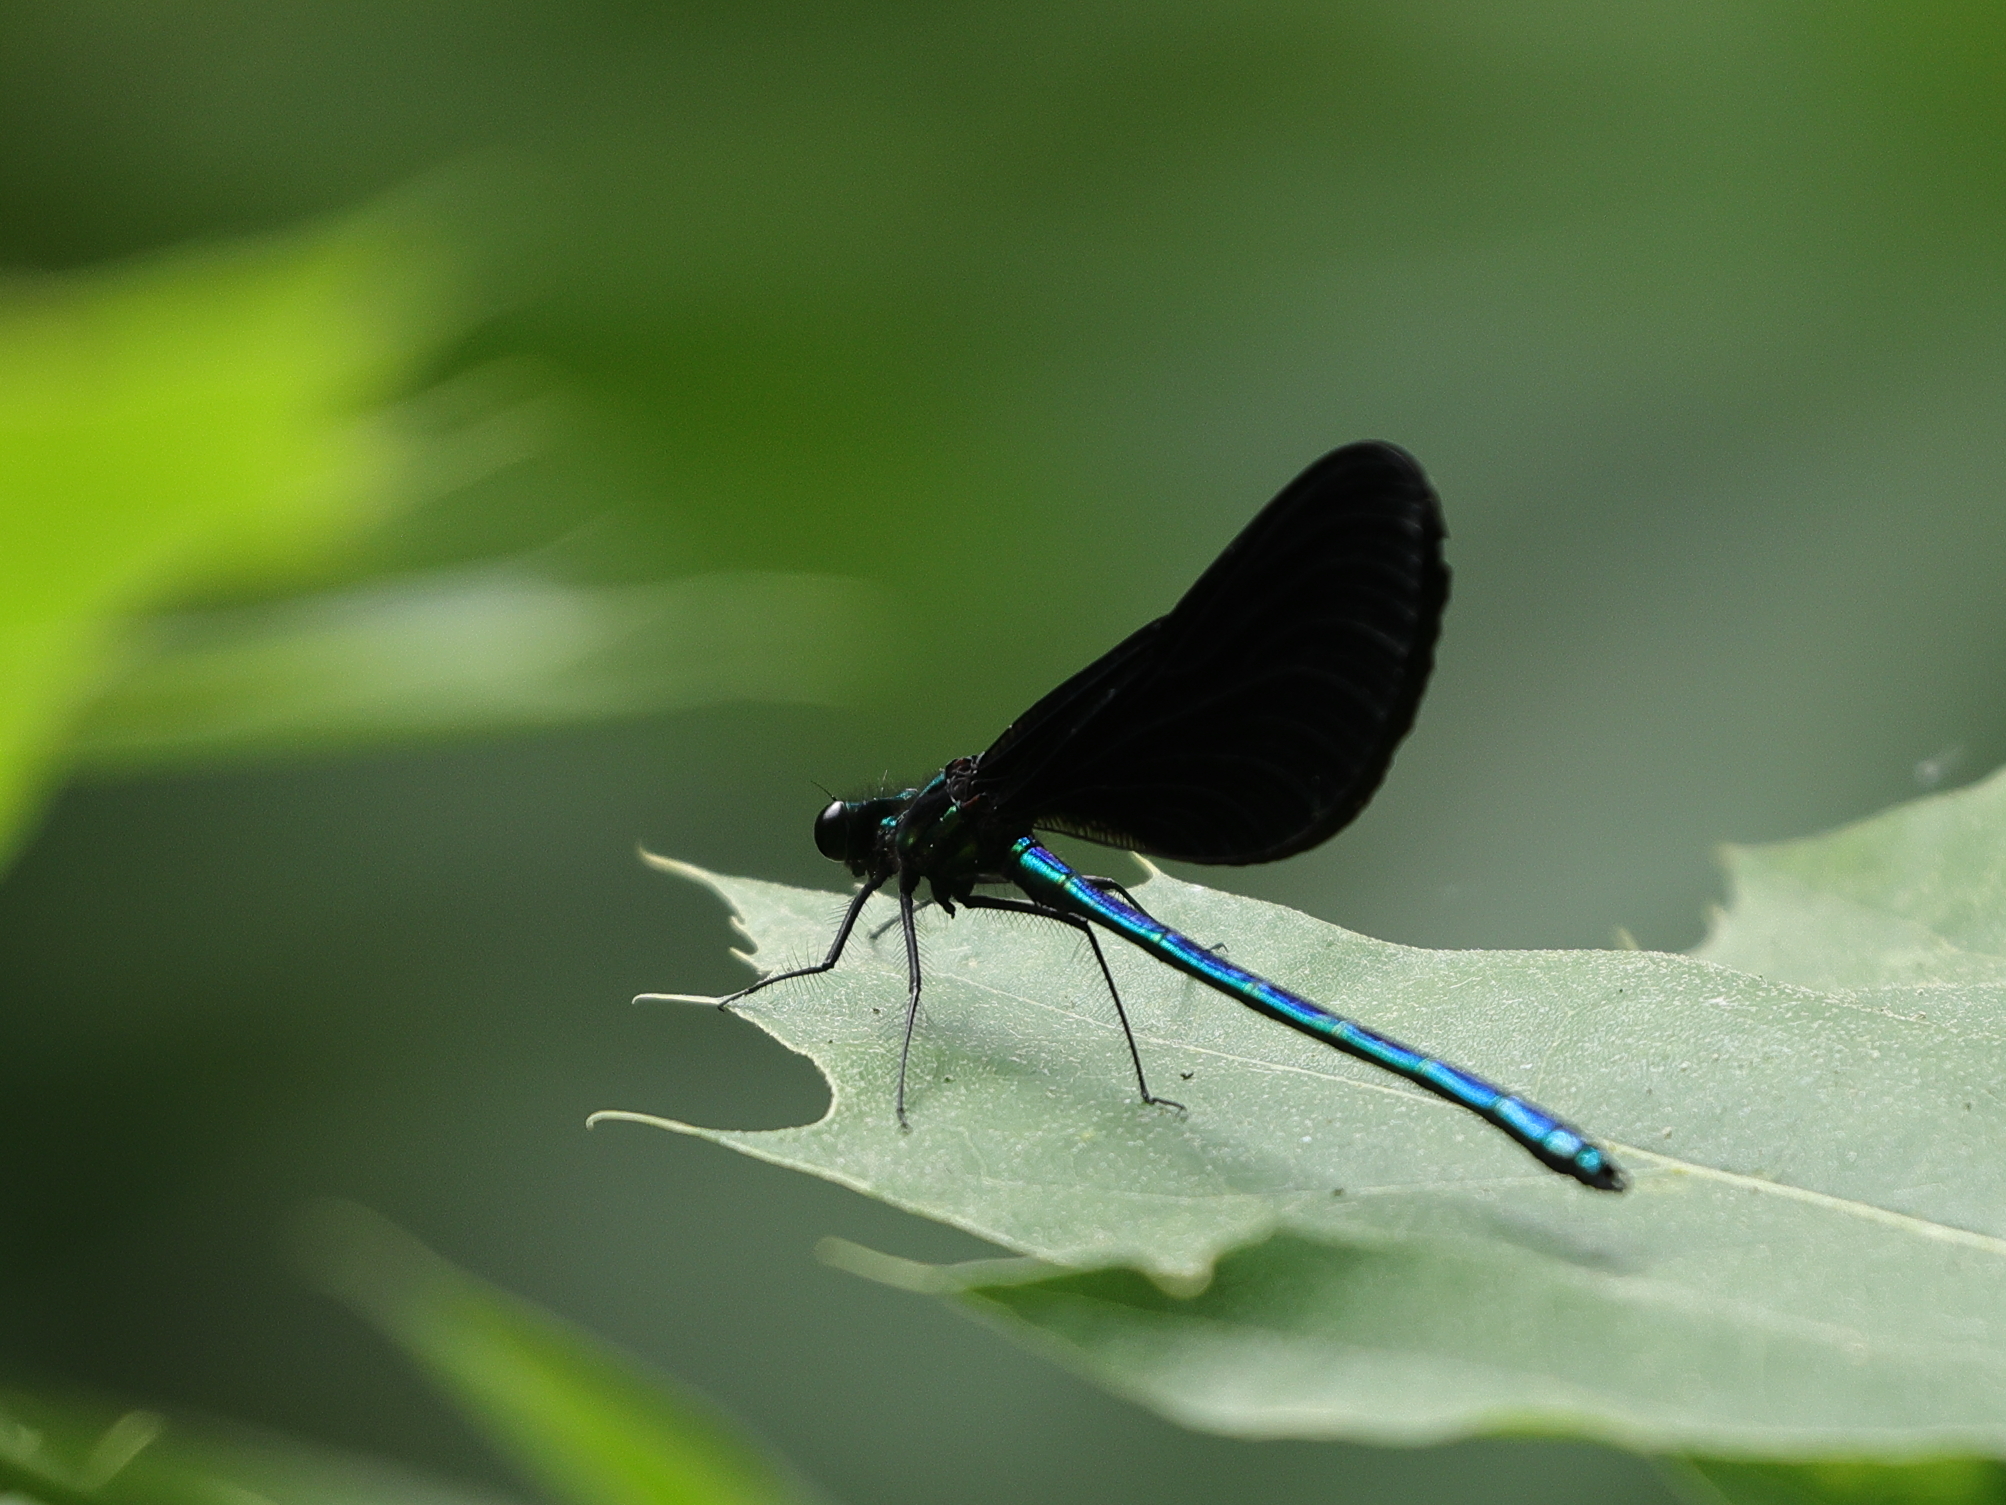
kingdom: Animalia
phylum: Arthropoda
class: Insecta
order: Odonata
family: Calopterygidae
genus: Calopteryx
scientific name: Calopteryx maculata
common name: Ebony jewelwing
